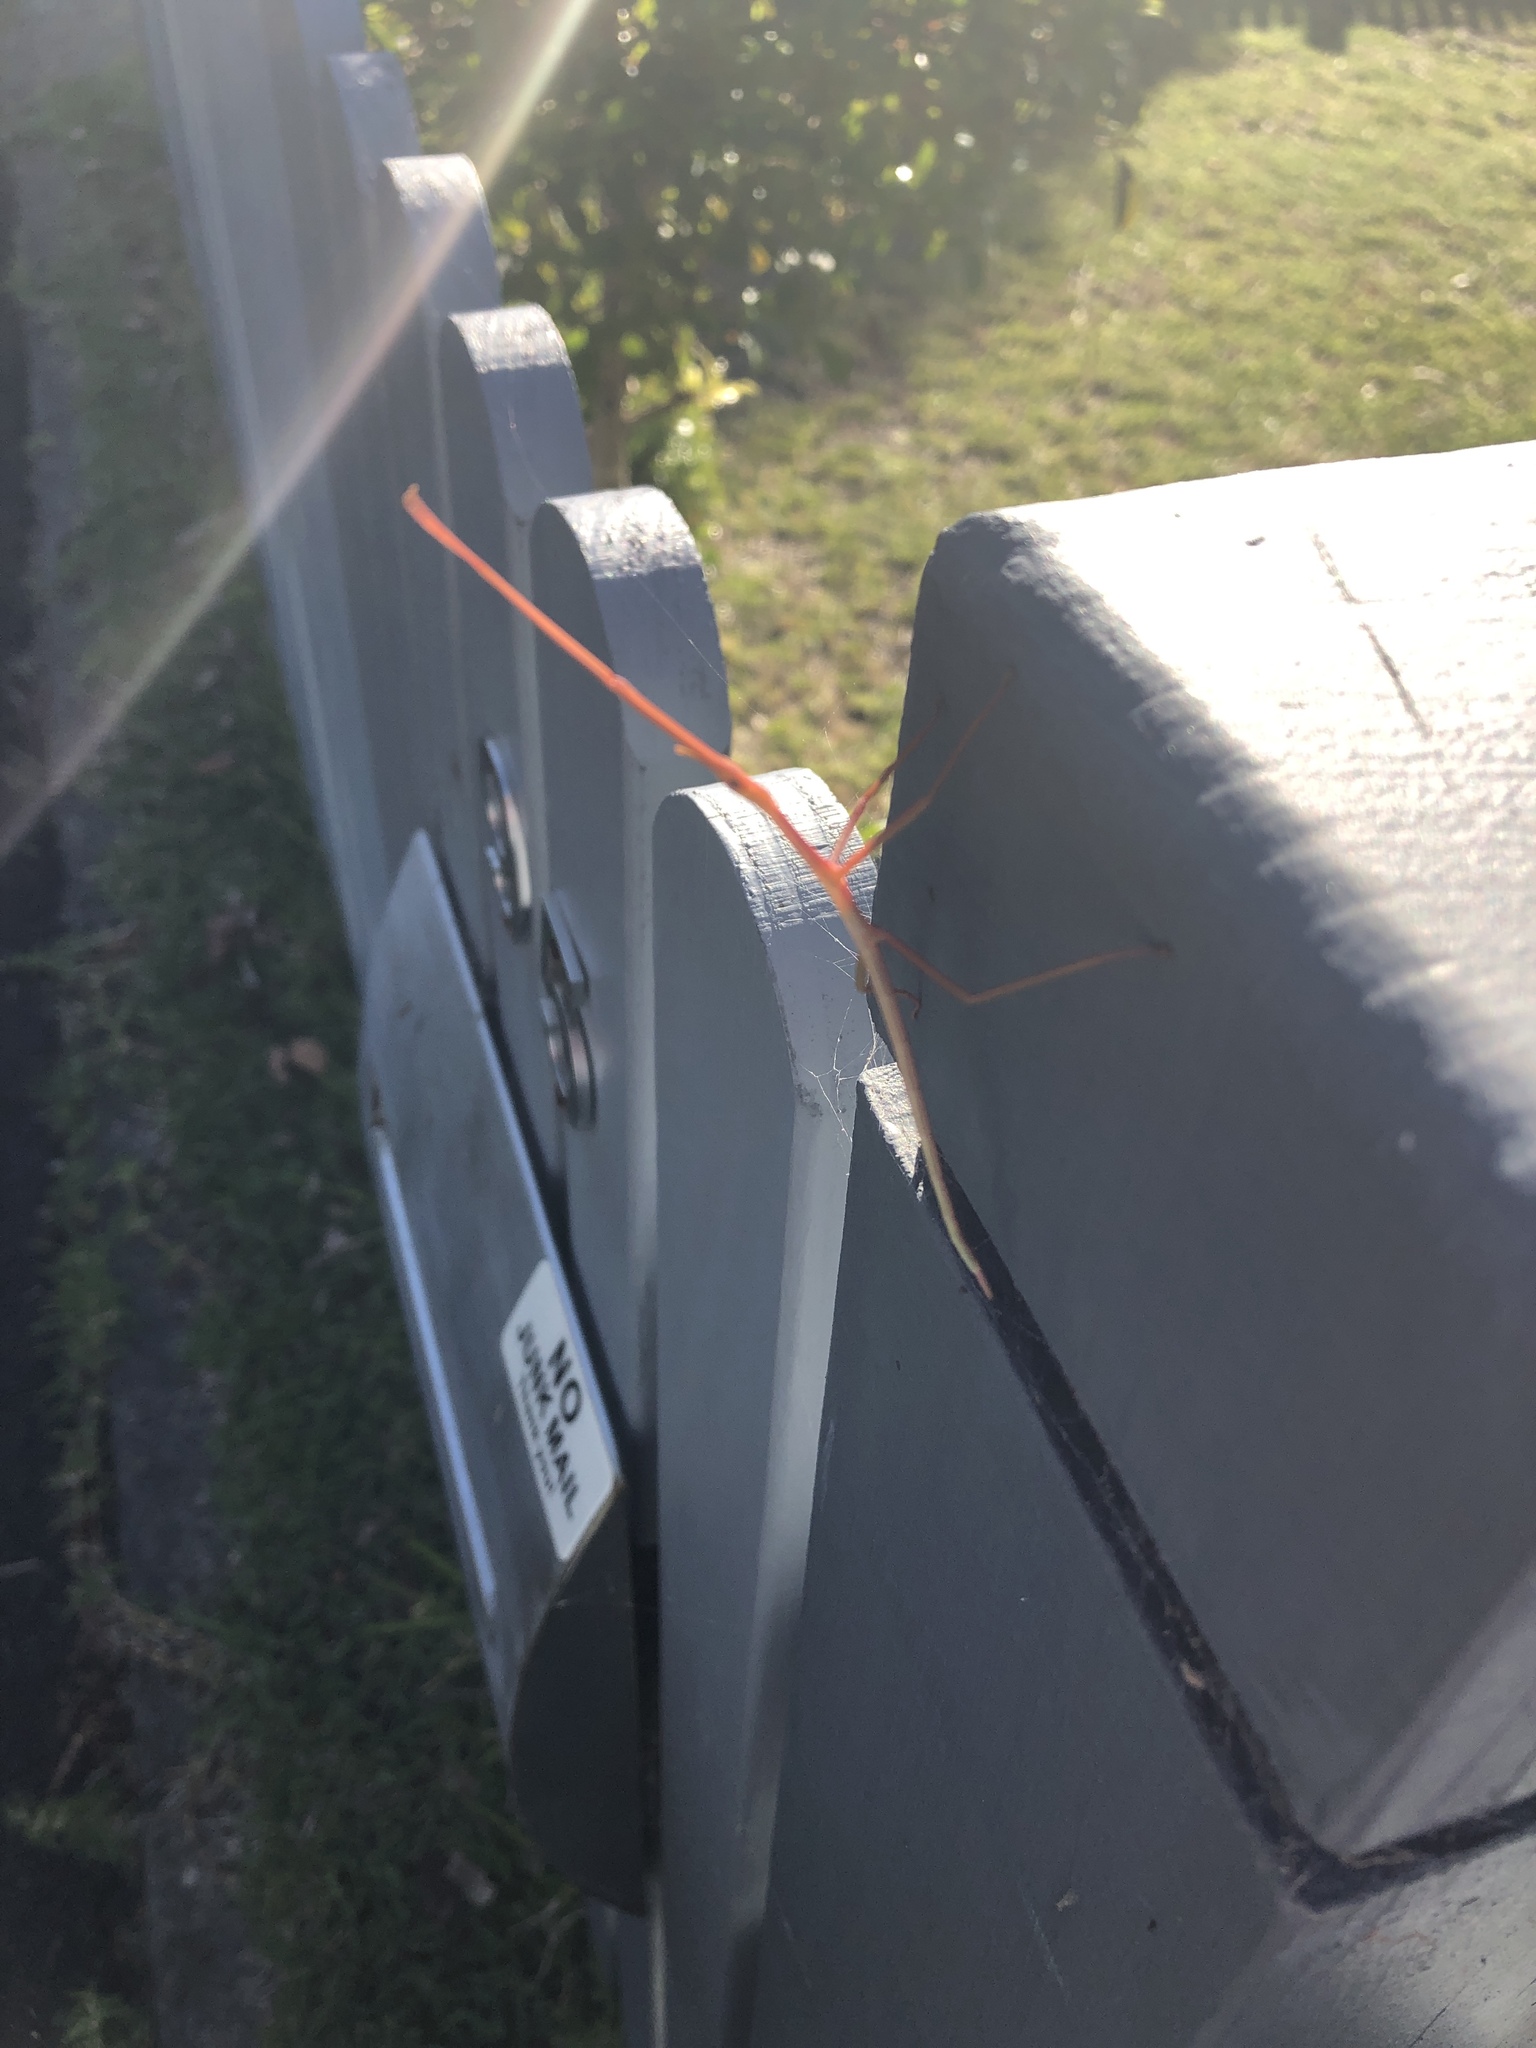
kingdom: Animalia
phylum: Arthropoda
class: Insecta
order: Phasmida
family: Phasmatidae
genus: Didymuria
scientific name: Didymuria violescens
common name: Spur-legged stick-insect
